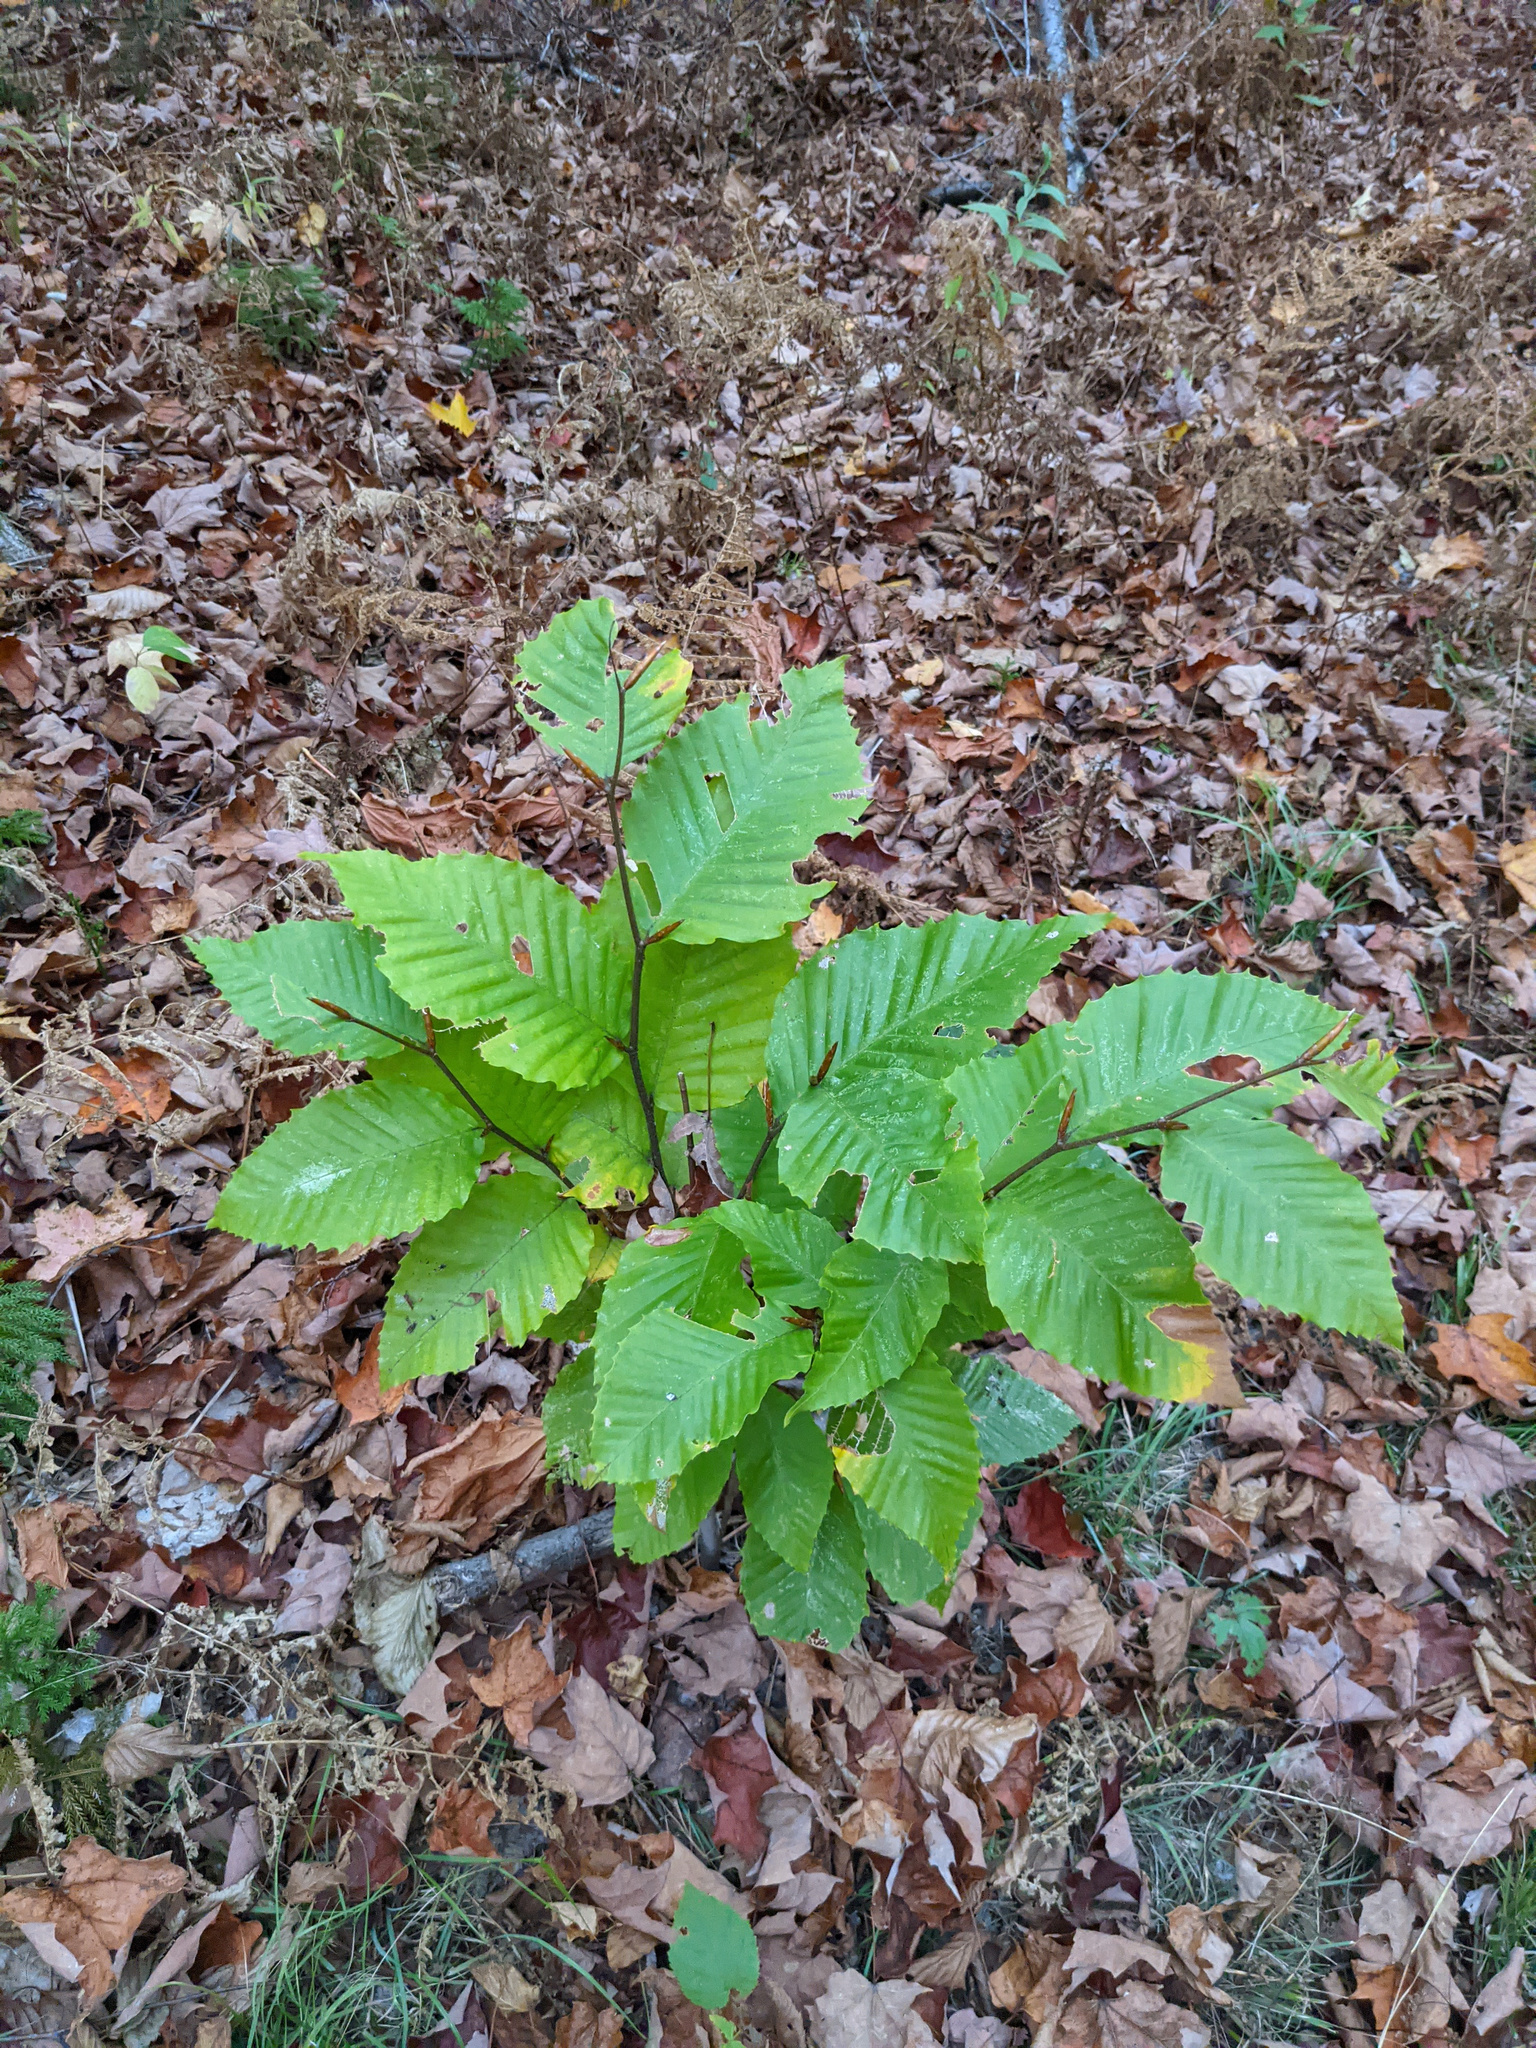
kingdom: Plantae
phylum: Tracheophyta
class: Magnoliopsida
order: Fagales
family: Fagaceae
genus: Fagus
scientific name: Fagus grandifolia
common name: American beech
